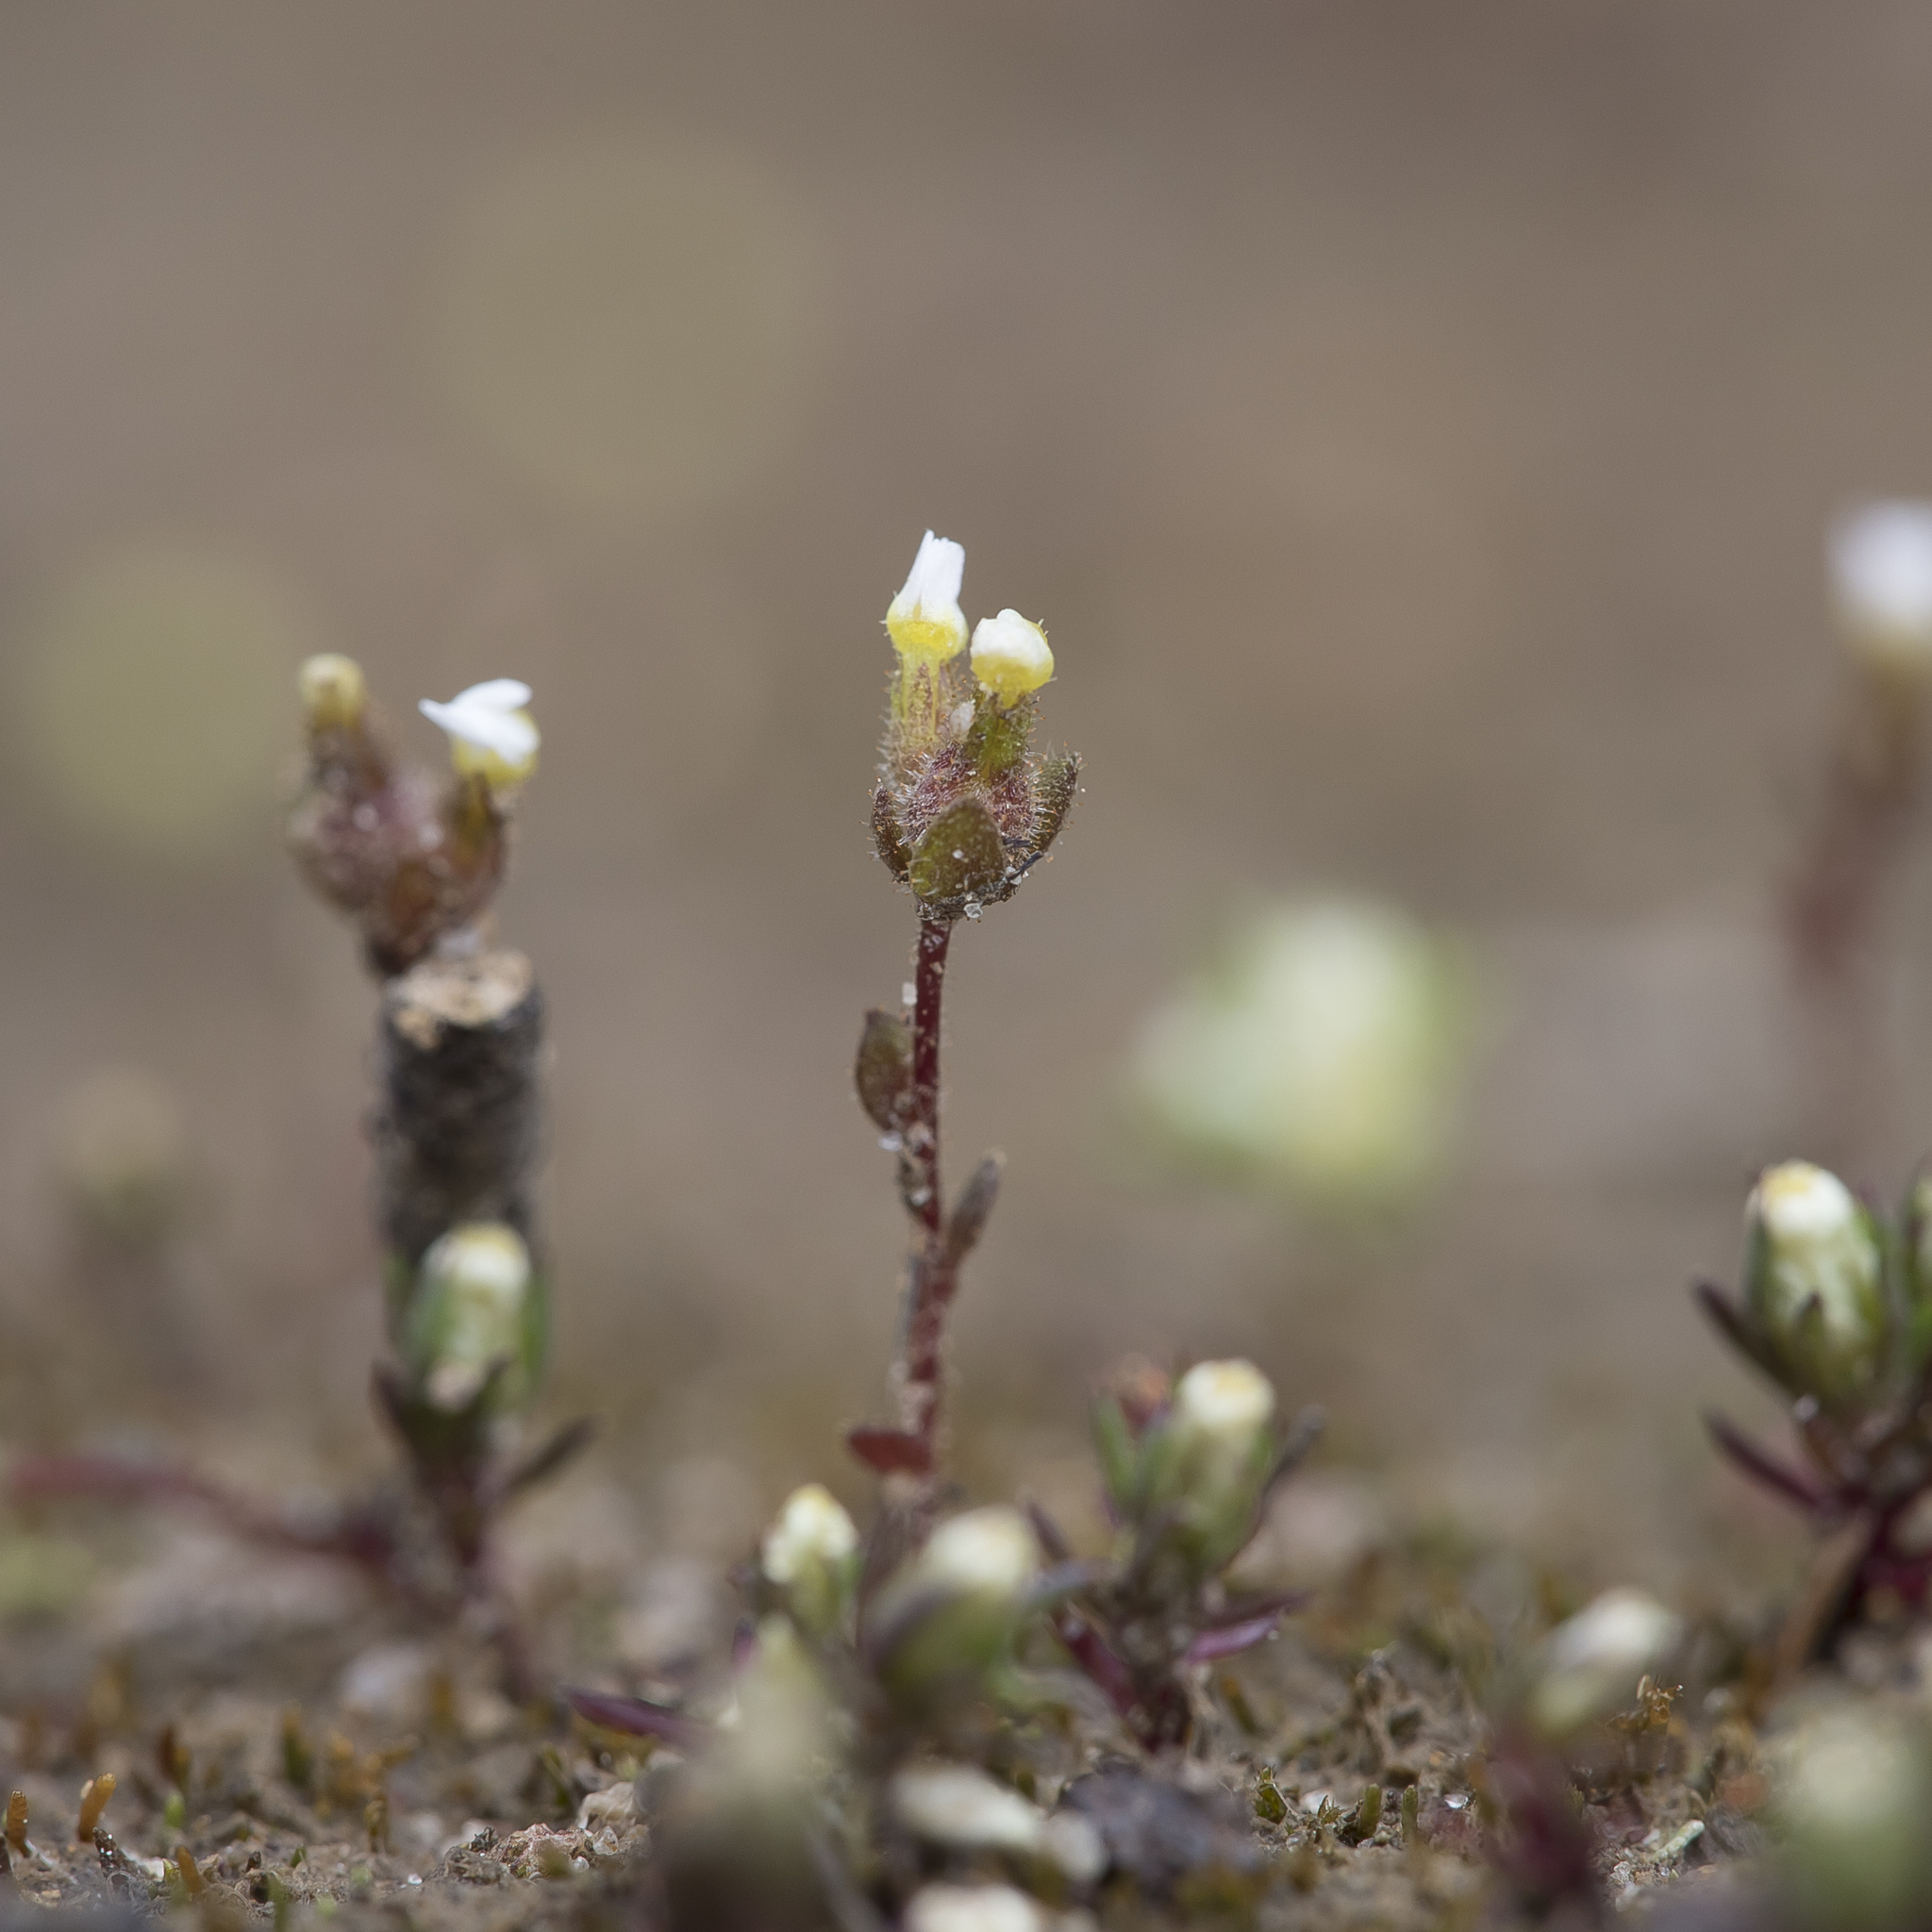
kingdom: Plantae
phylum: Tracheophyta
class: Magnoliopsida
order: Asterales
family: Stylidiaceae
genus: Levenhookia
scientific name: Levenhookia dubia
